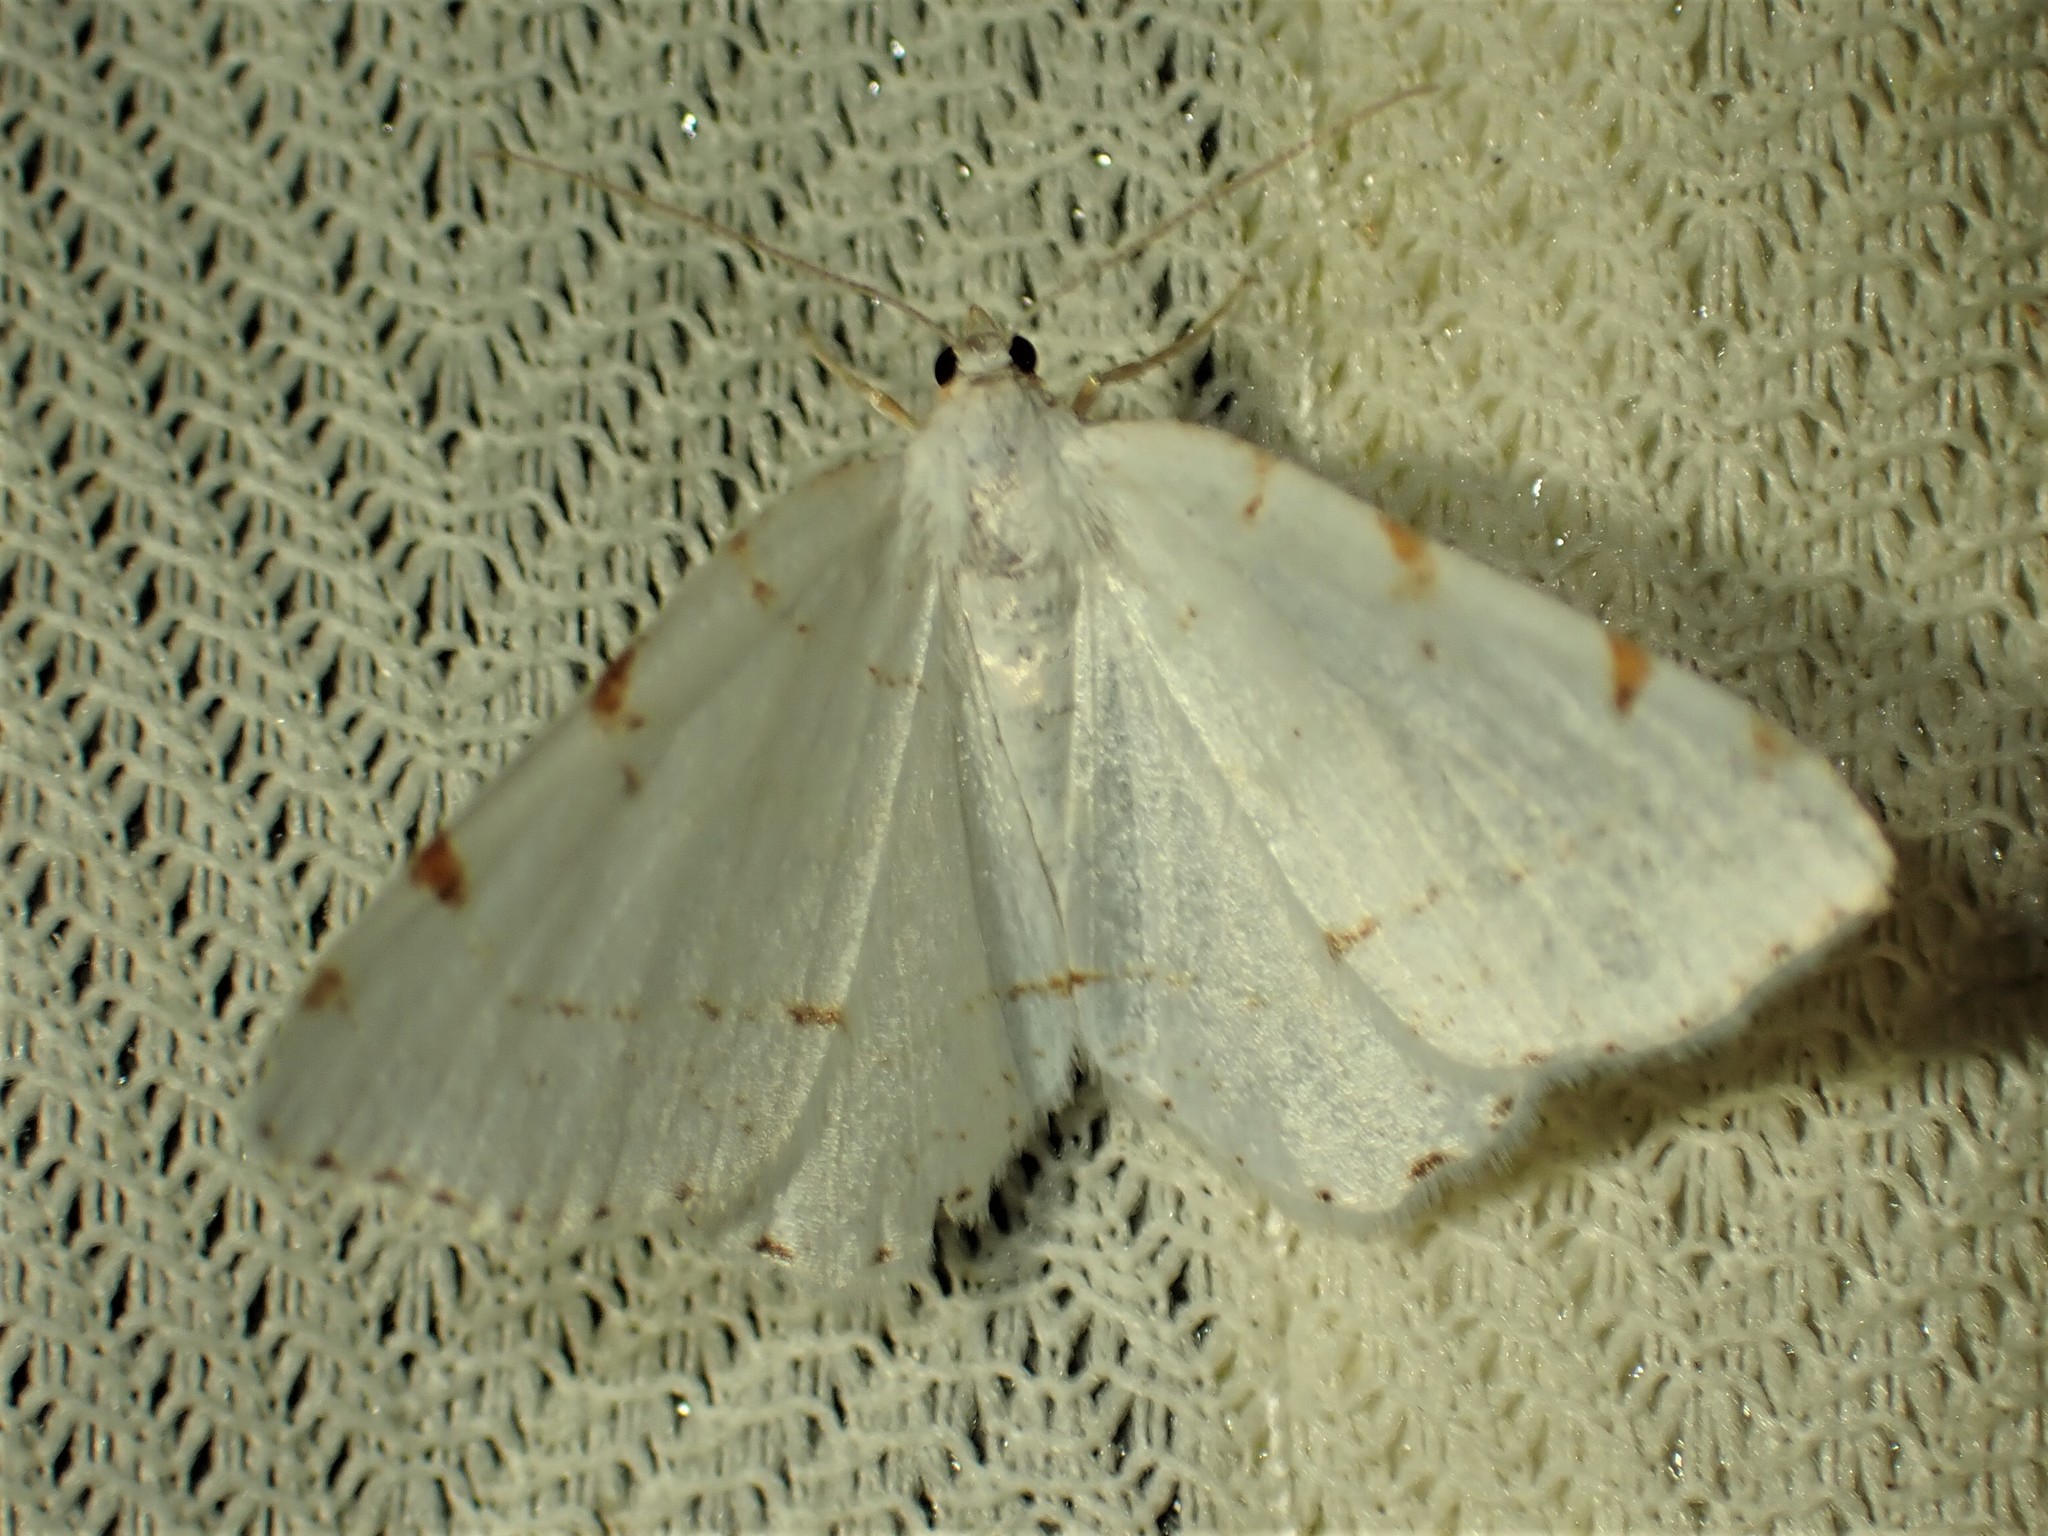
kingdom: Animalia
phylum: Arthropoda
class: Insecta
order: Lepidoptera
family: Geometridae
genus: Macaria
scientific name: Macaria pustularia
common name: Lesser maple spanworm moth
